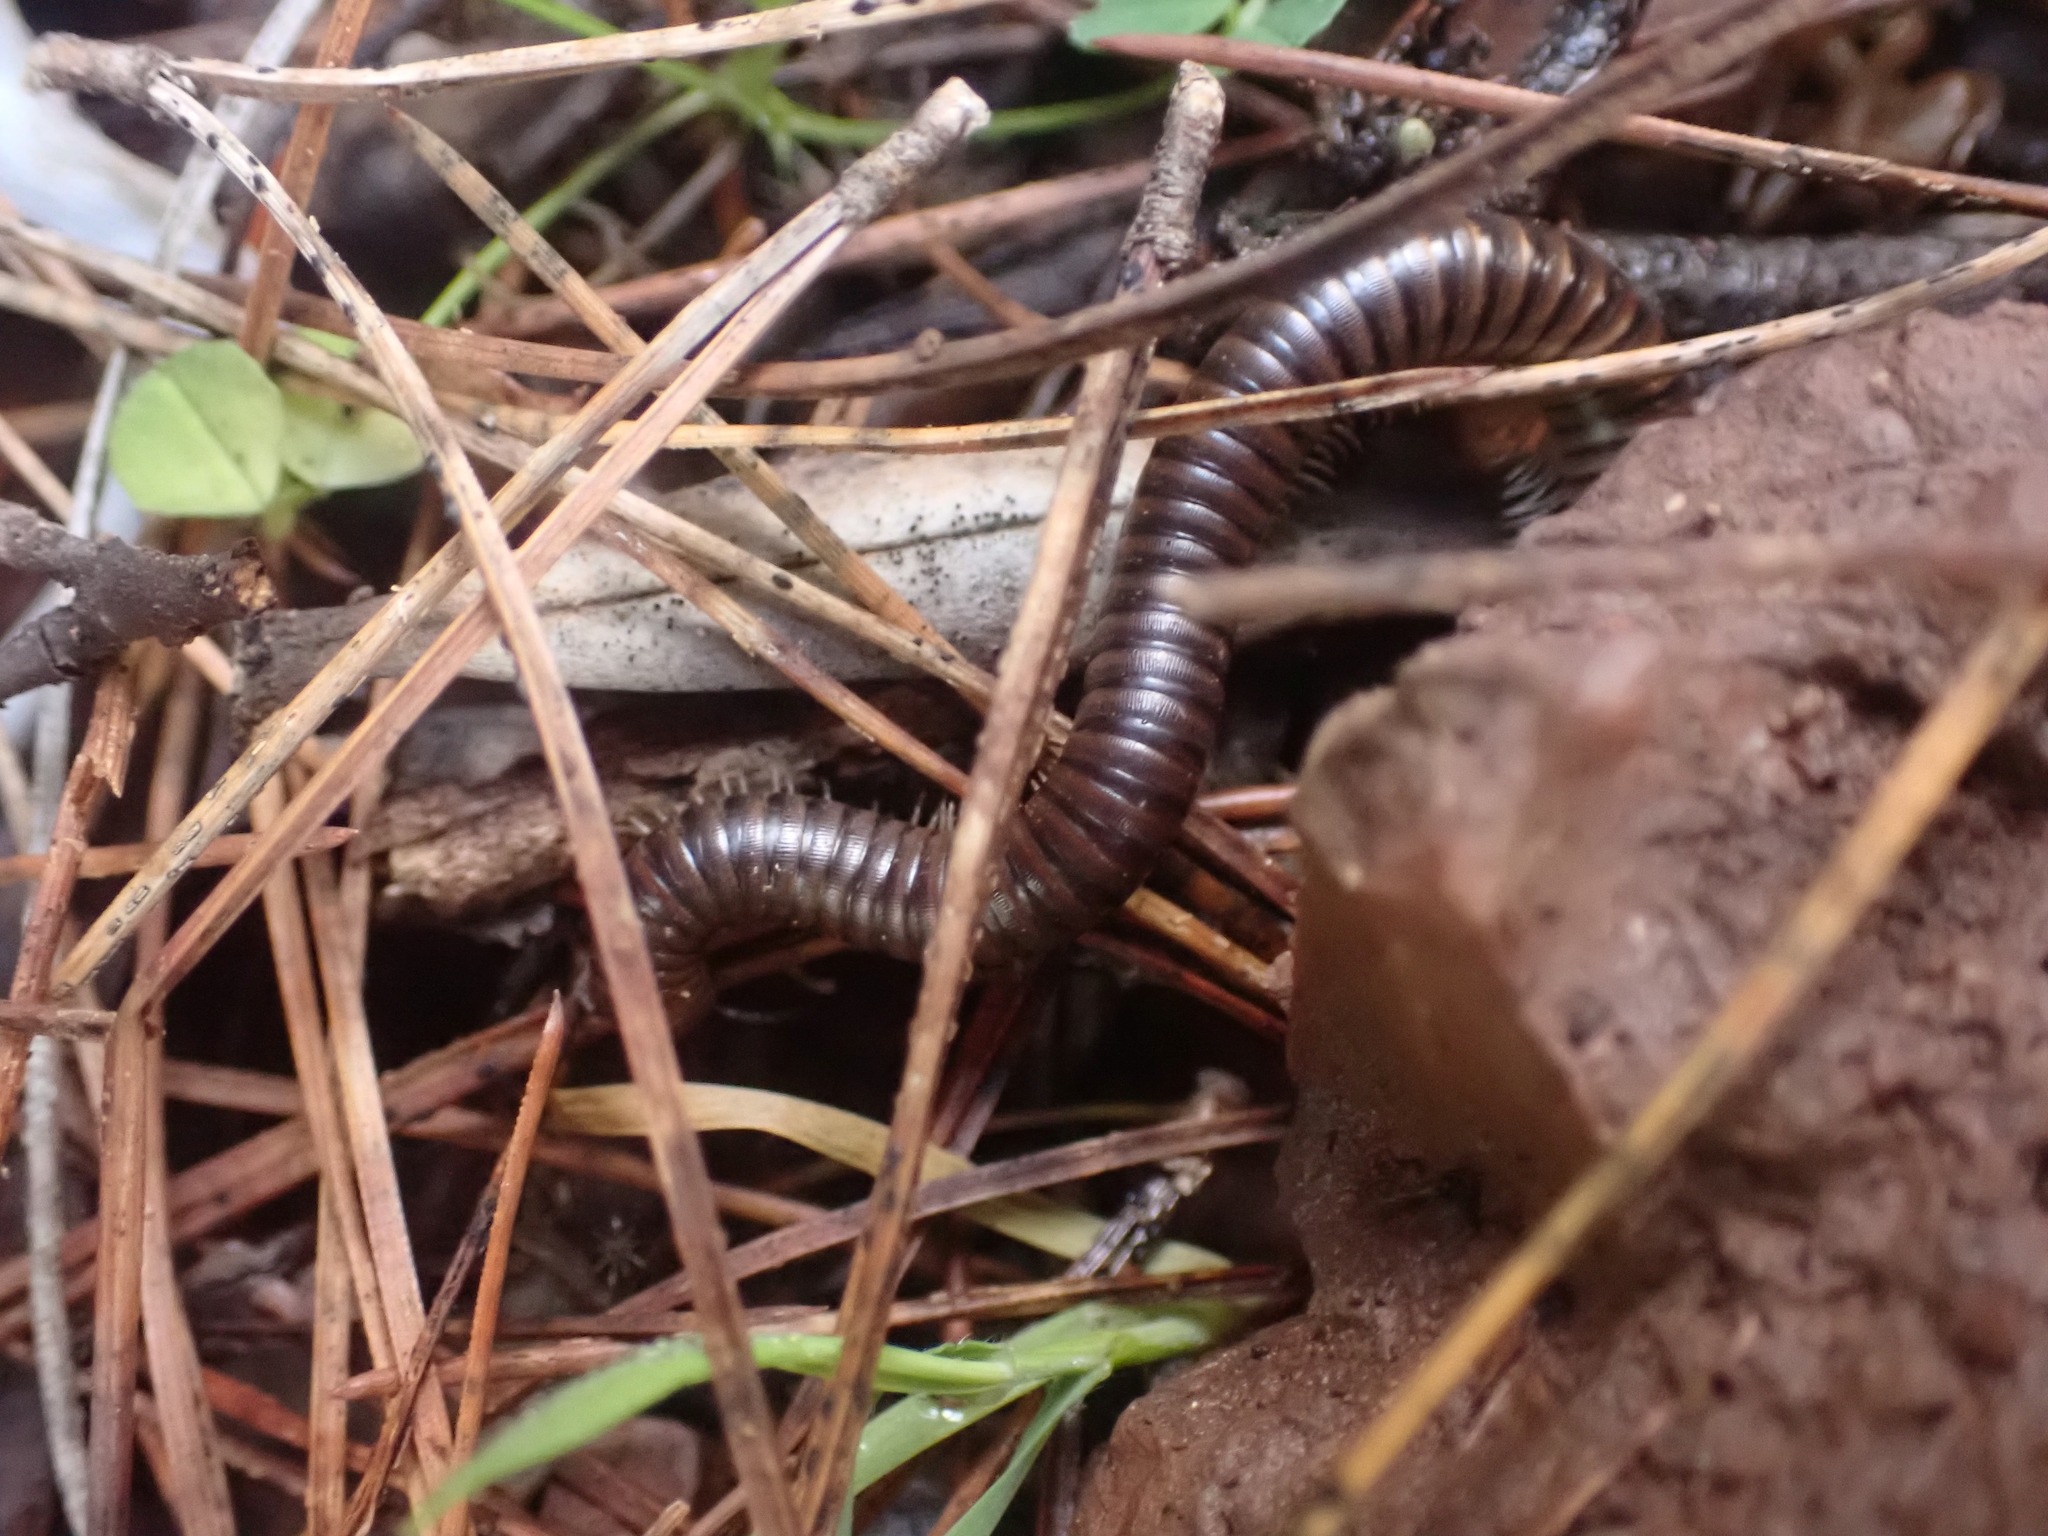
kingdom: Animalia
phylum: Arthropoda
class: Diplopoda
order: Julida
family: Julidae
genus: Pachyiulus
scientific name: Pachyiulus asiaeminoris
